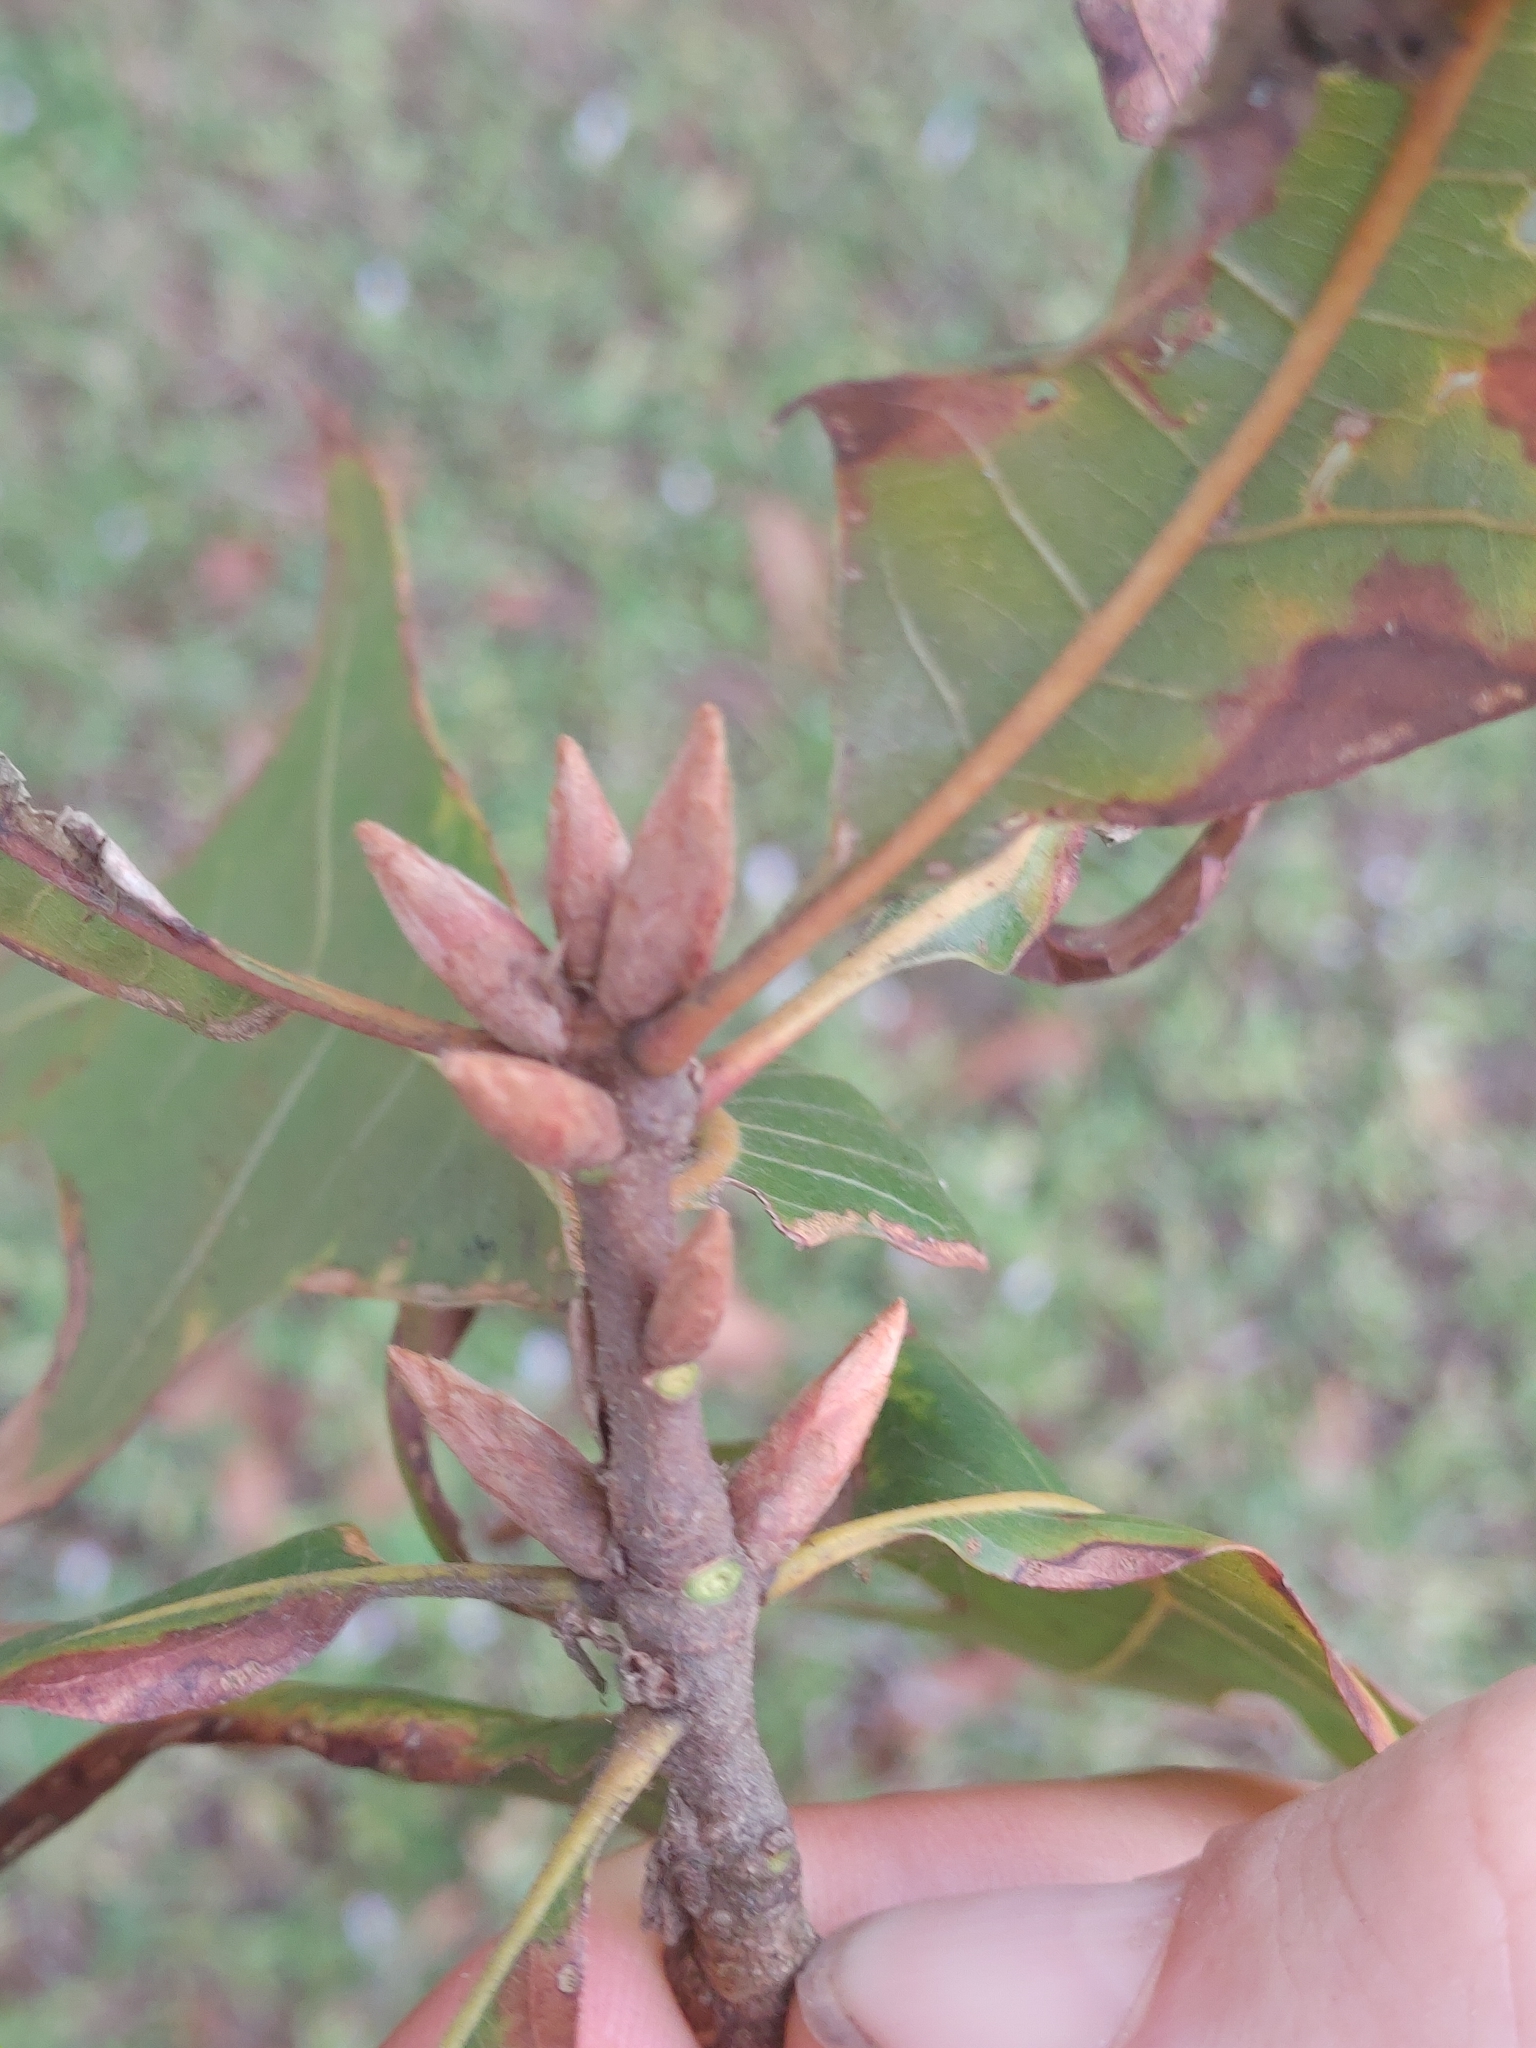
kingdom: Plantae
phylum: Tracheophyta
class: Magnoliopsida
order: Fagales
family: Fagaceae
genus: Quercus
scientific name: Quercus laevis
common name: Turkey oak
